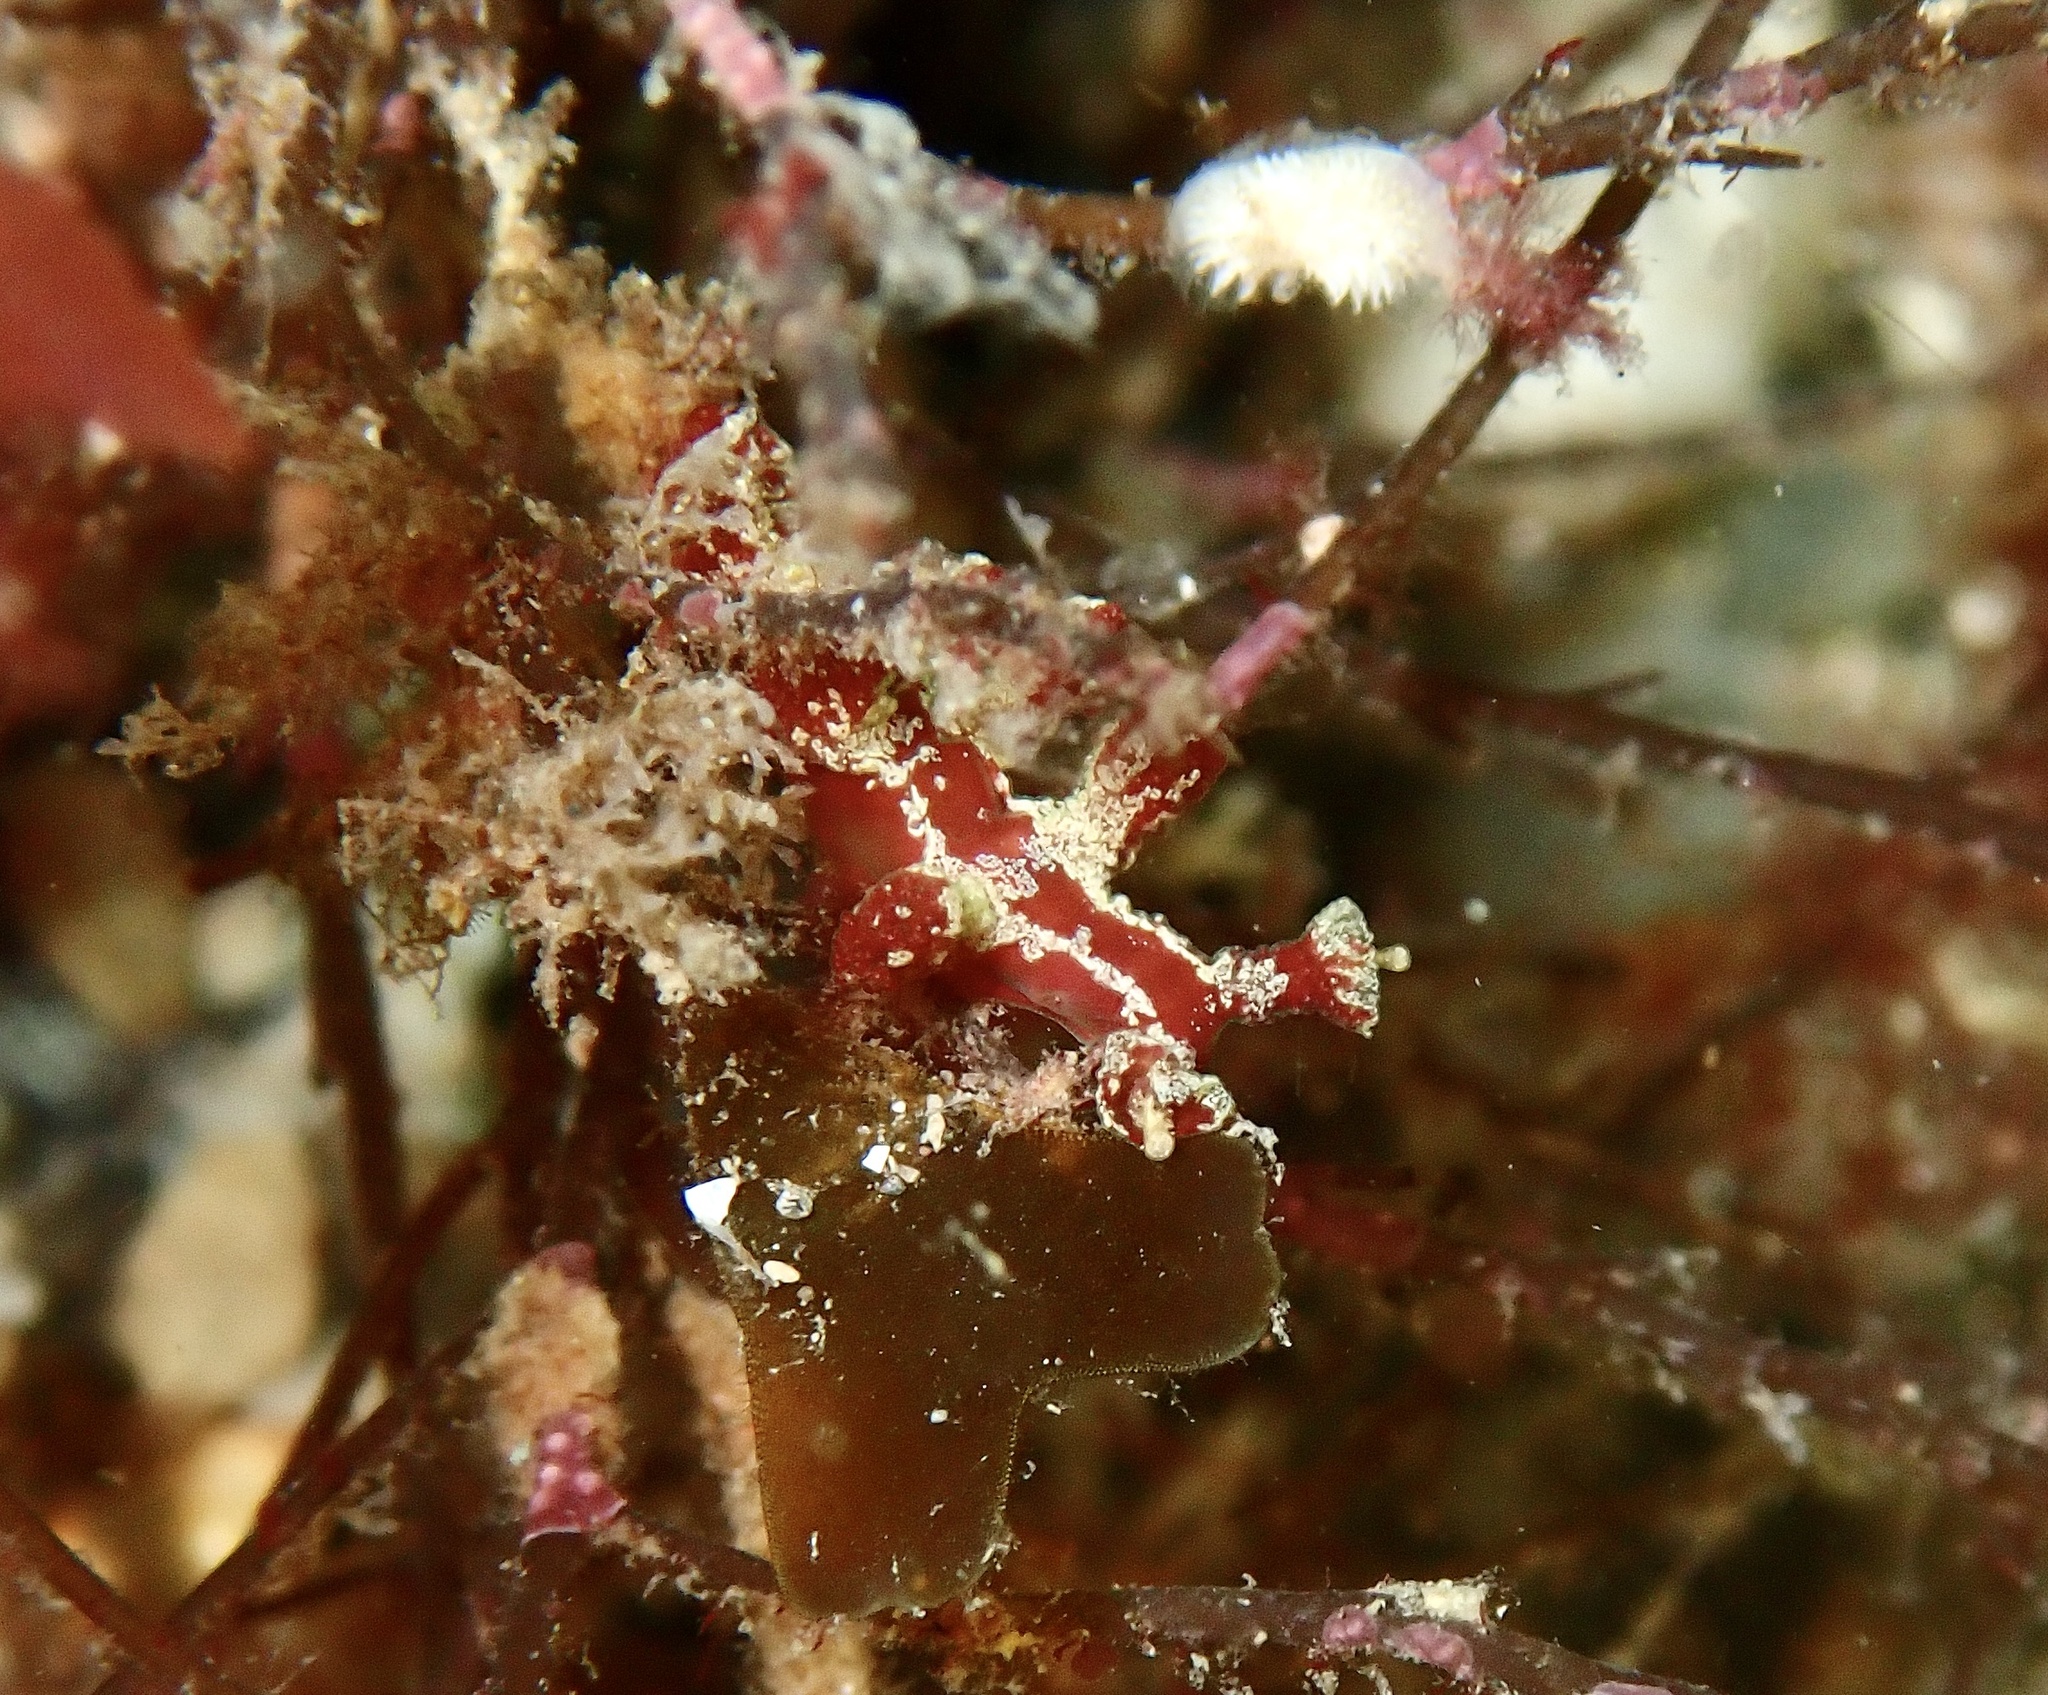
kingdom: Animalia
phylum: Mollusca
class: Gastropoda
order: Nudibranchia
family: Hancockiidae
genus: Hancockia
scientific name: Hancockia uncinata
